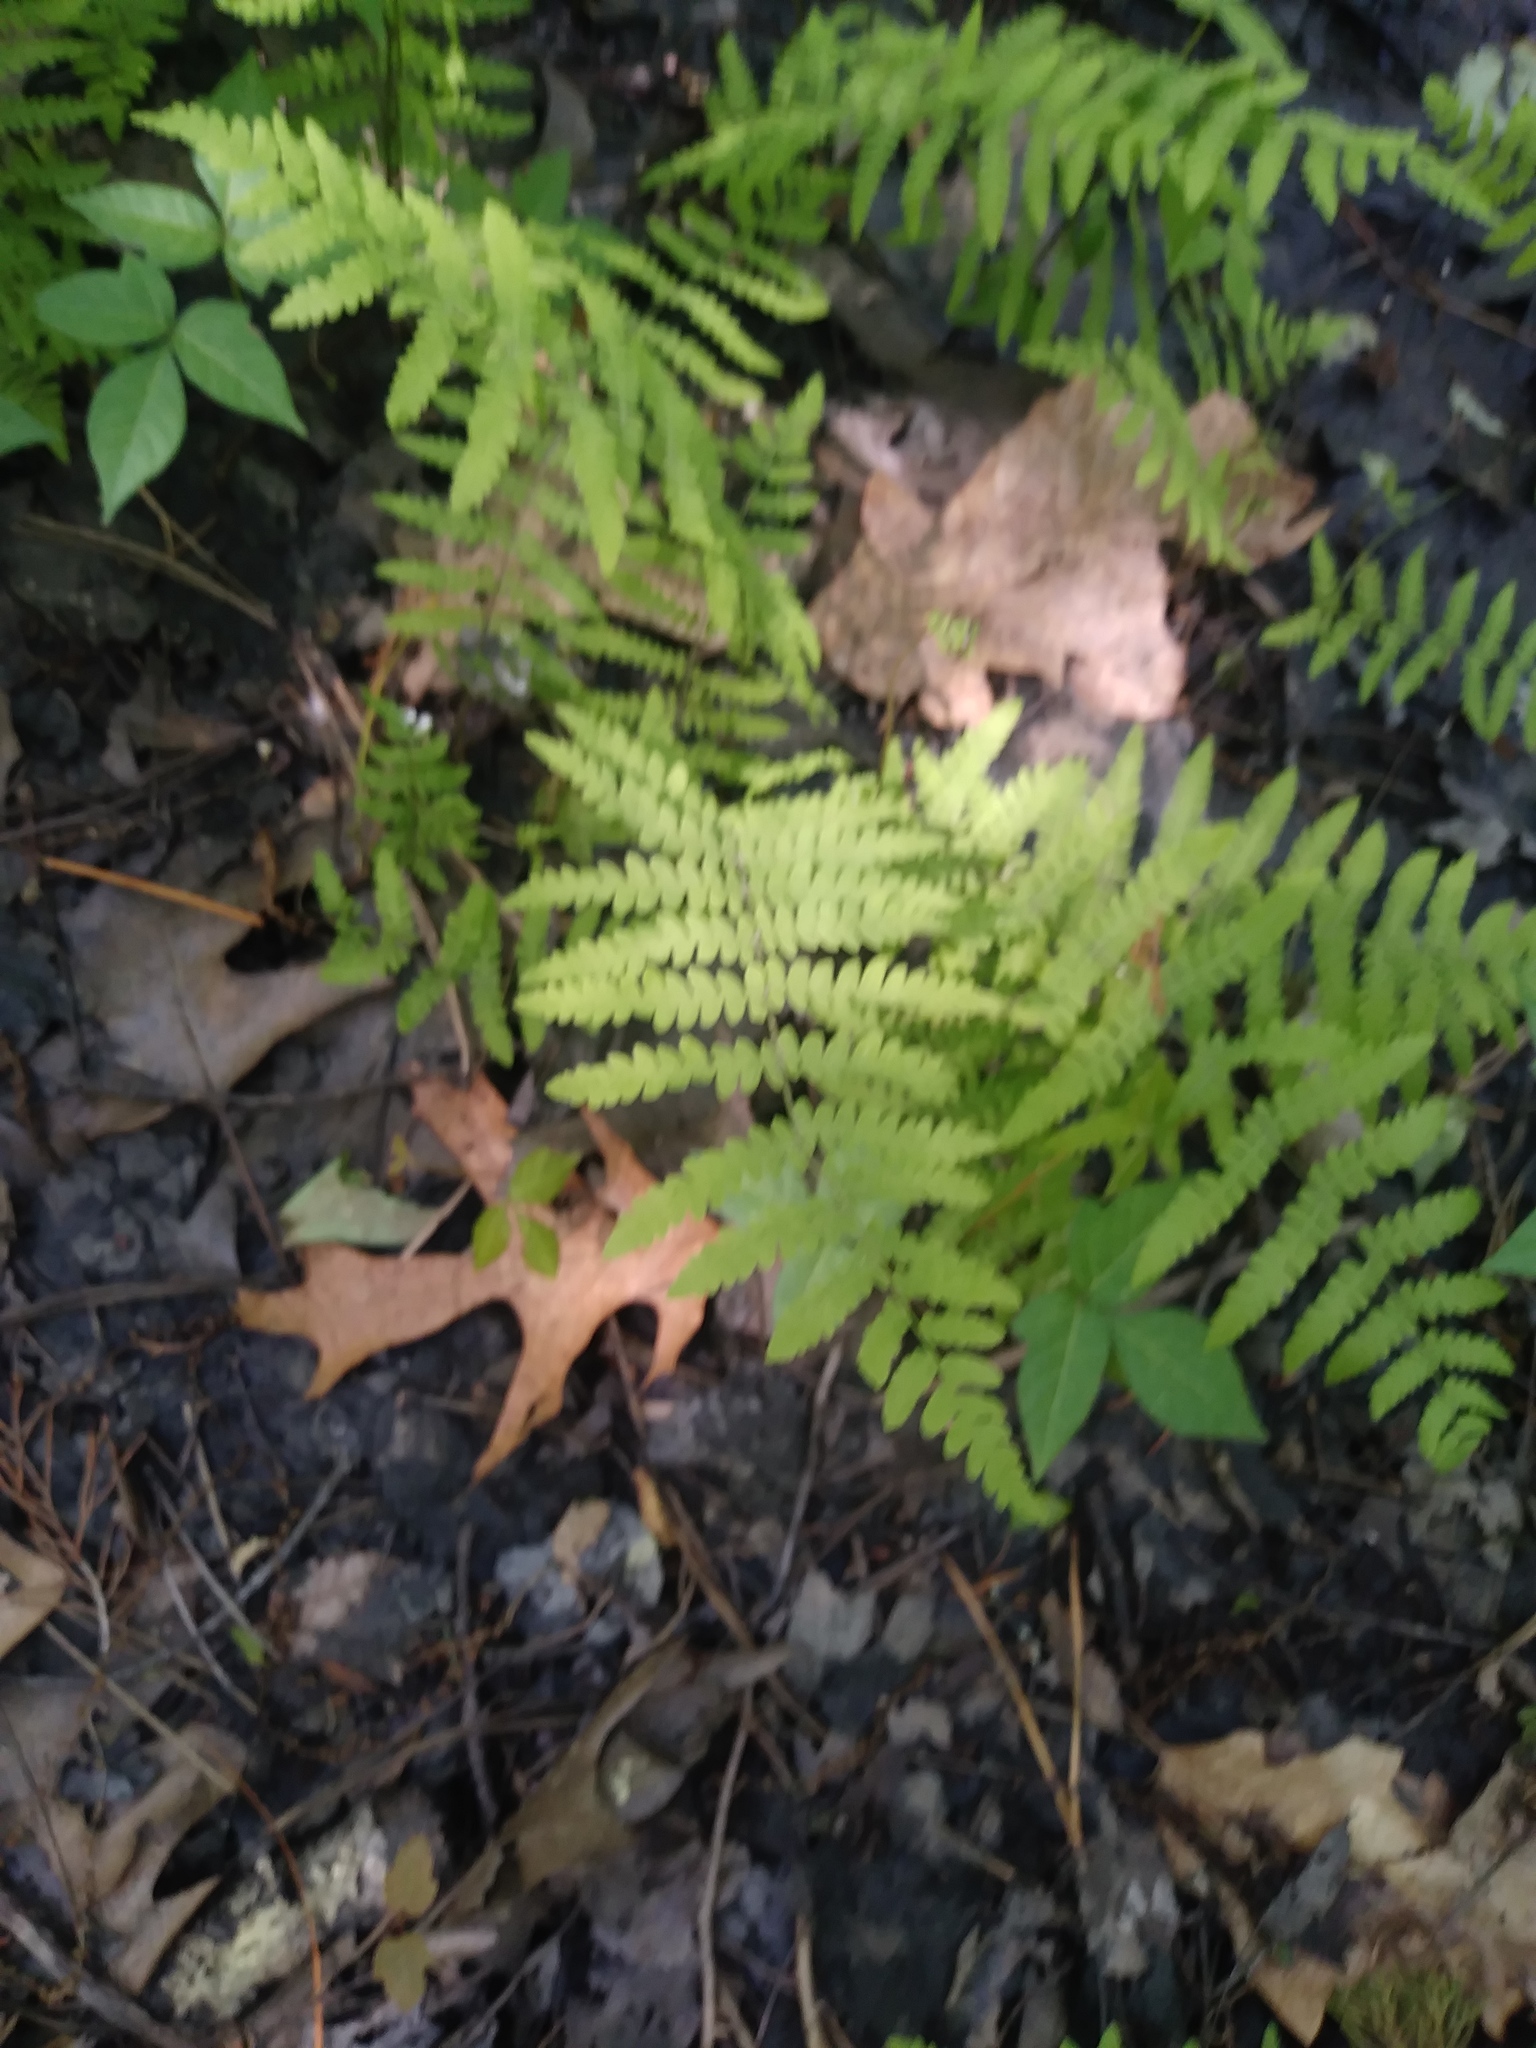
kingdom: Plantae
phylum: Tracheophyta
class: Polypodiopsida
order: Polypodiales
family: Thelypteridaceae
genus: Thelypteris
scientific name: Thelypteris palustris
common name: Marsh fern
